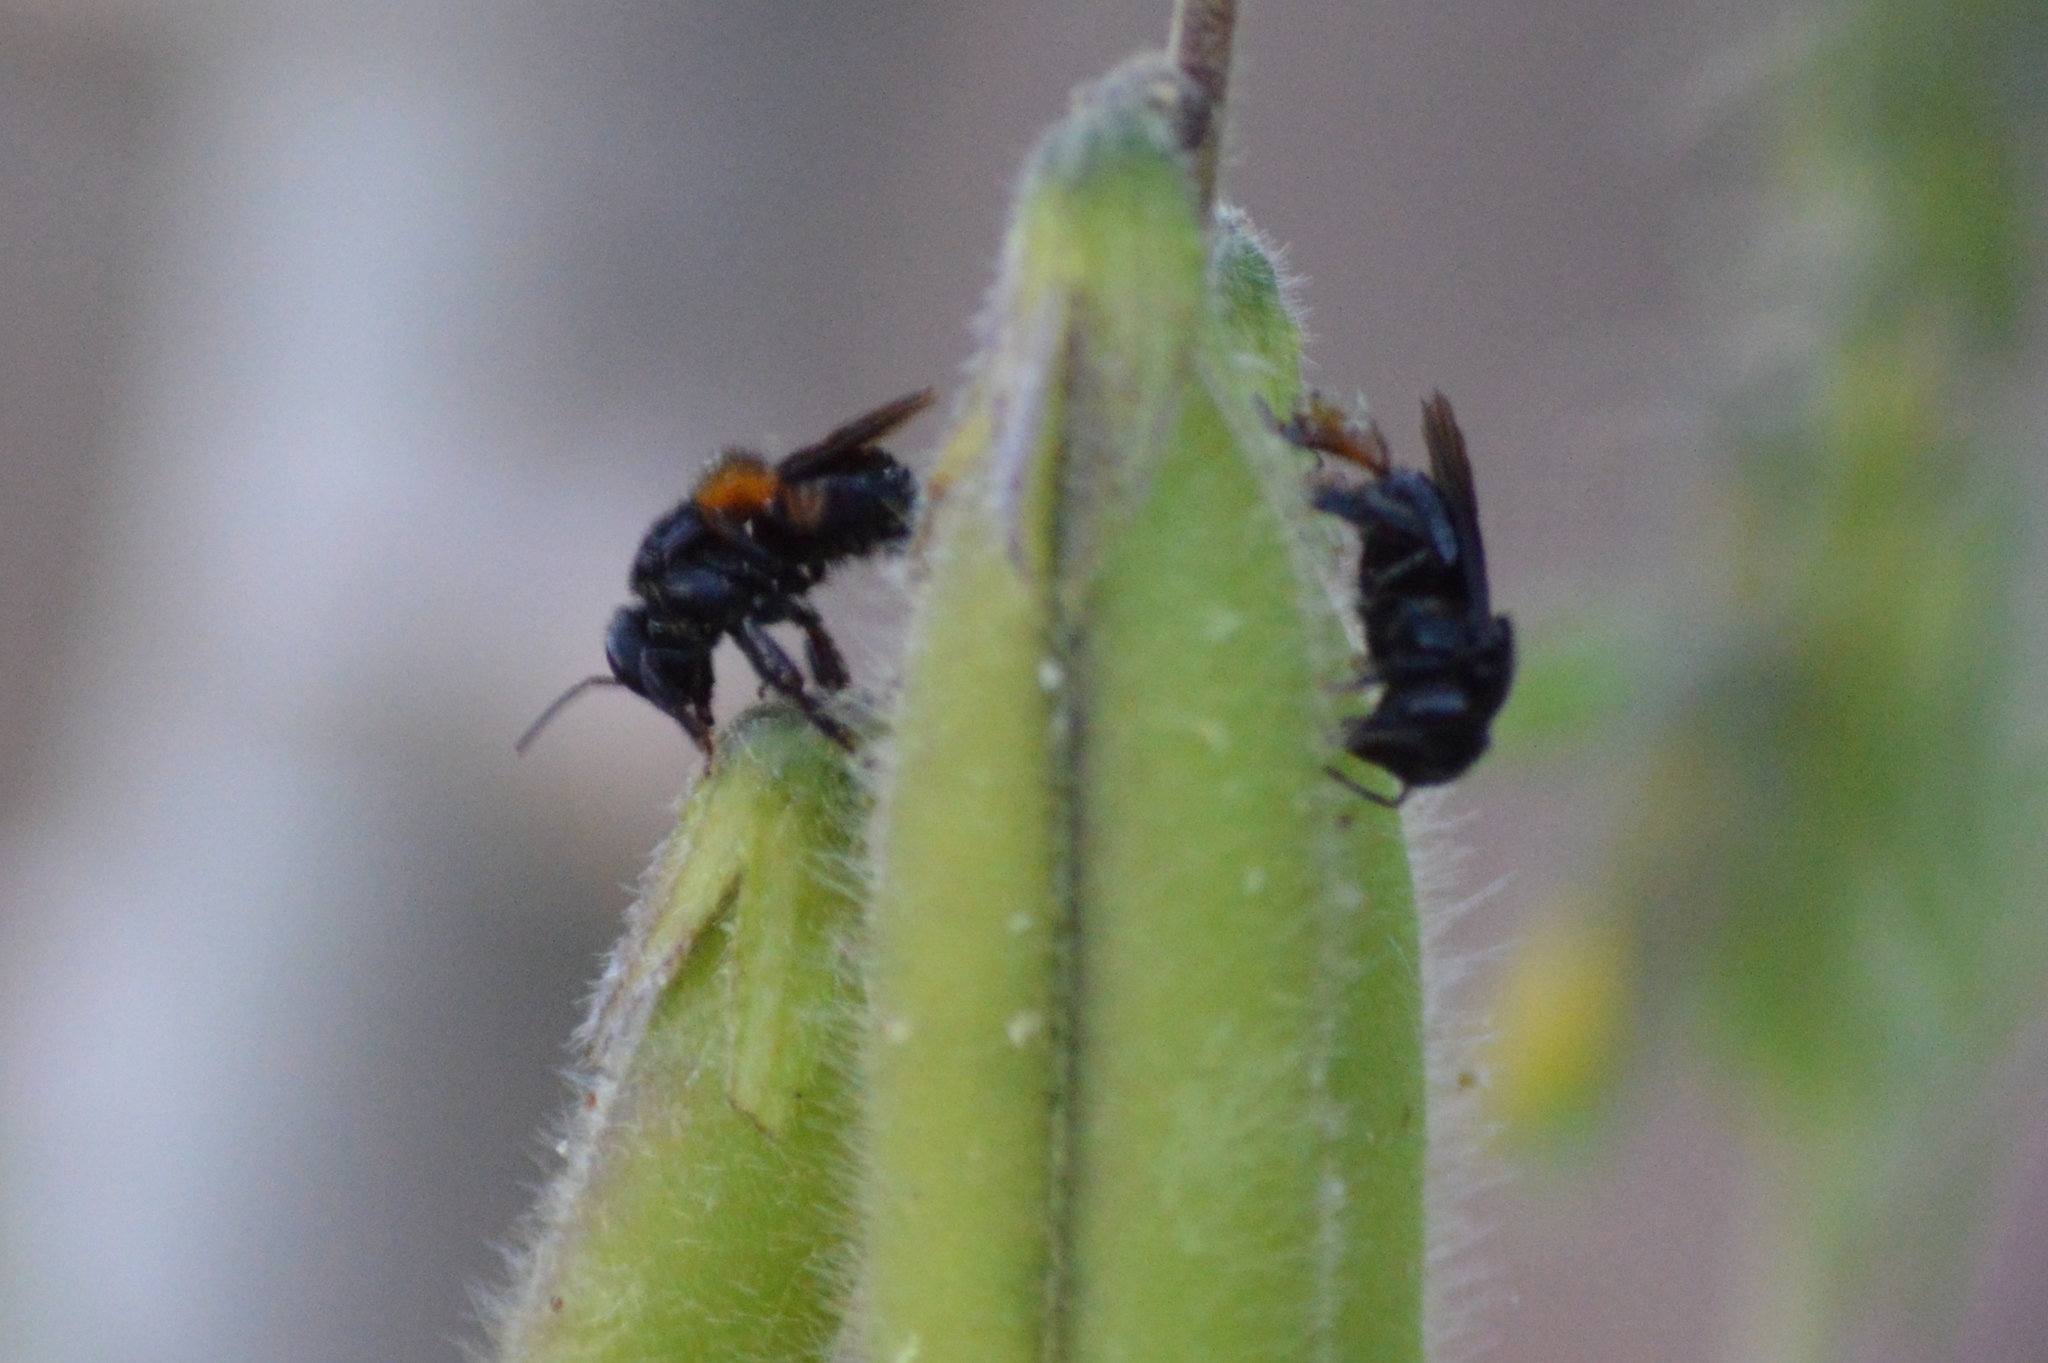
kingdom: Animalia
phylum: Arthropoda
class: Insecta
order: Hymenoptera
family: Apidae
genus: Trigona
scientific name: Trigona spinipes
